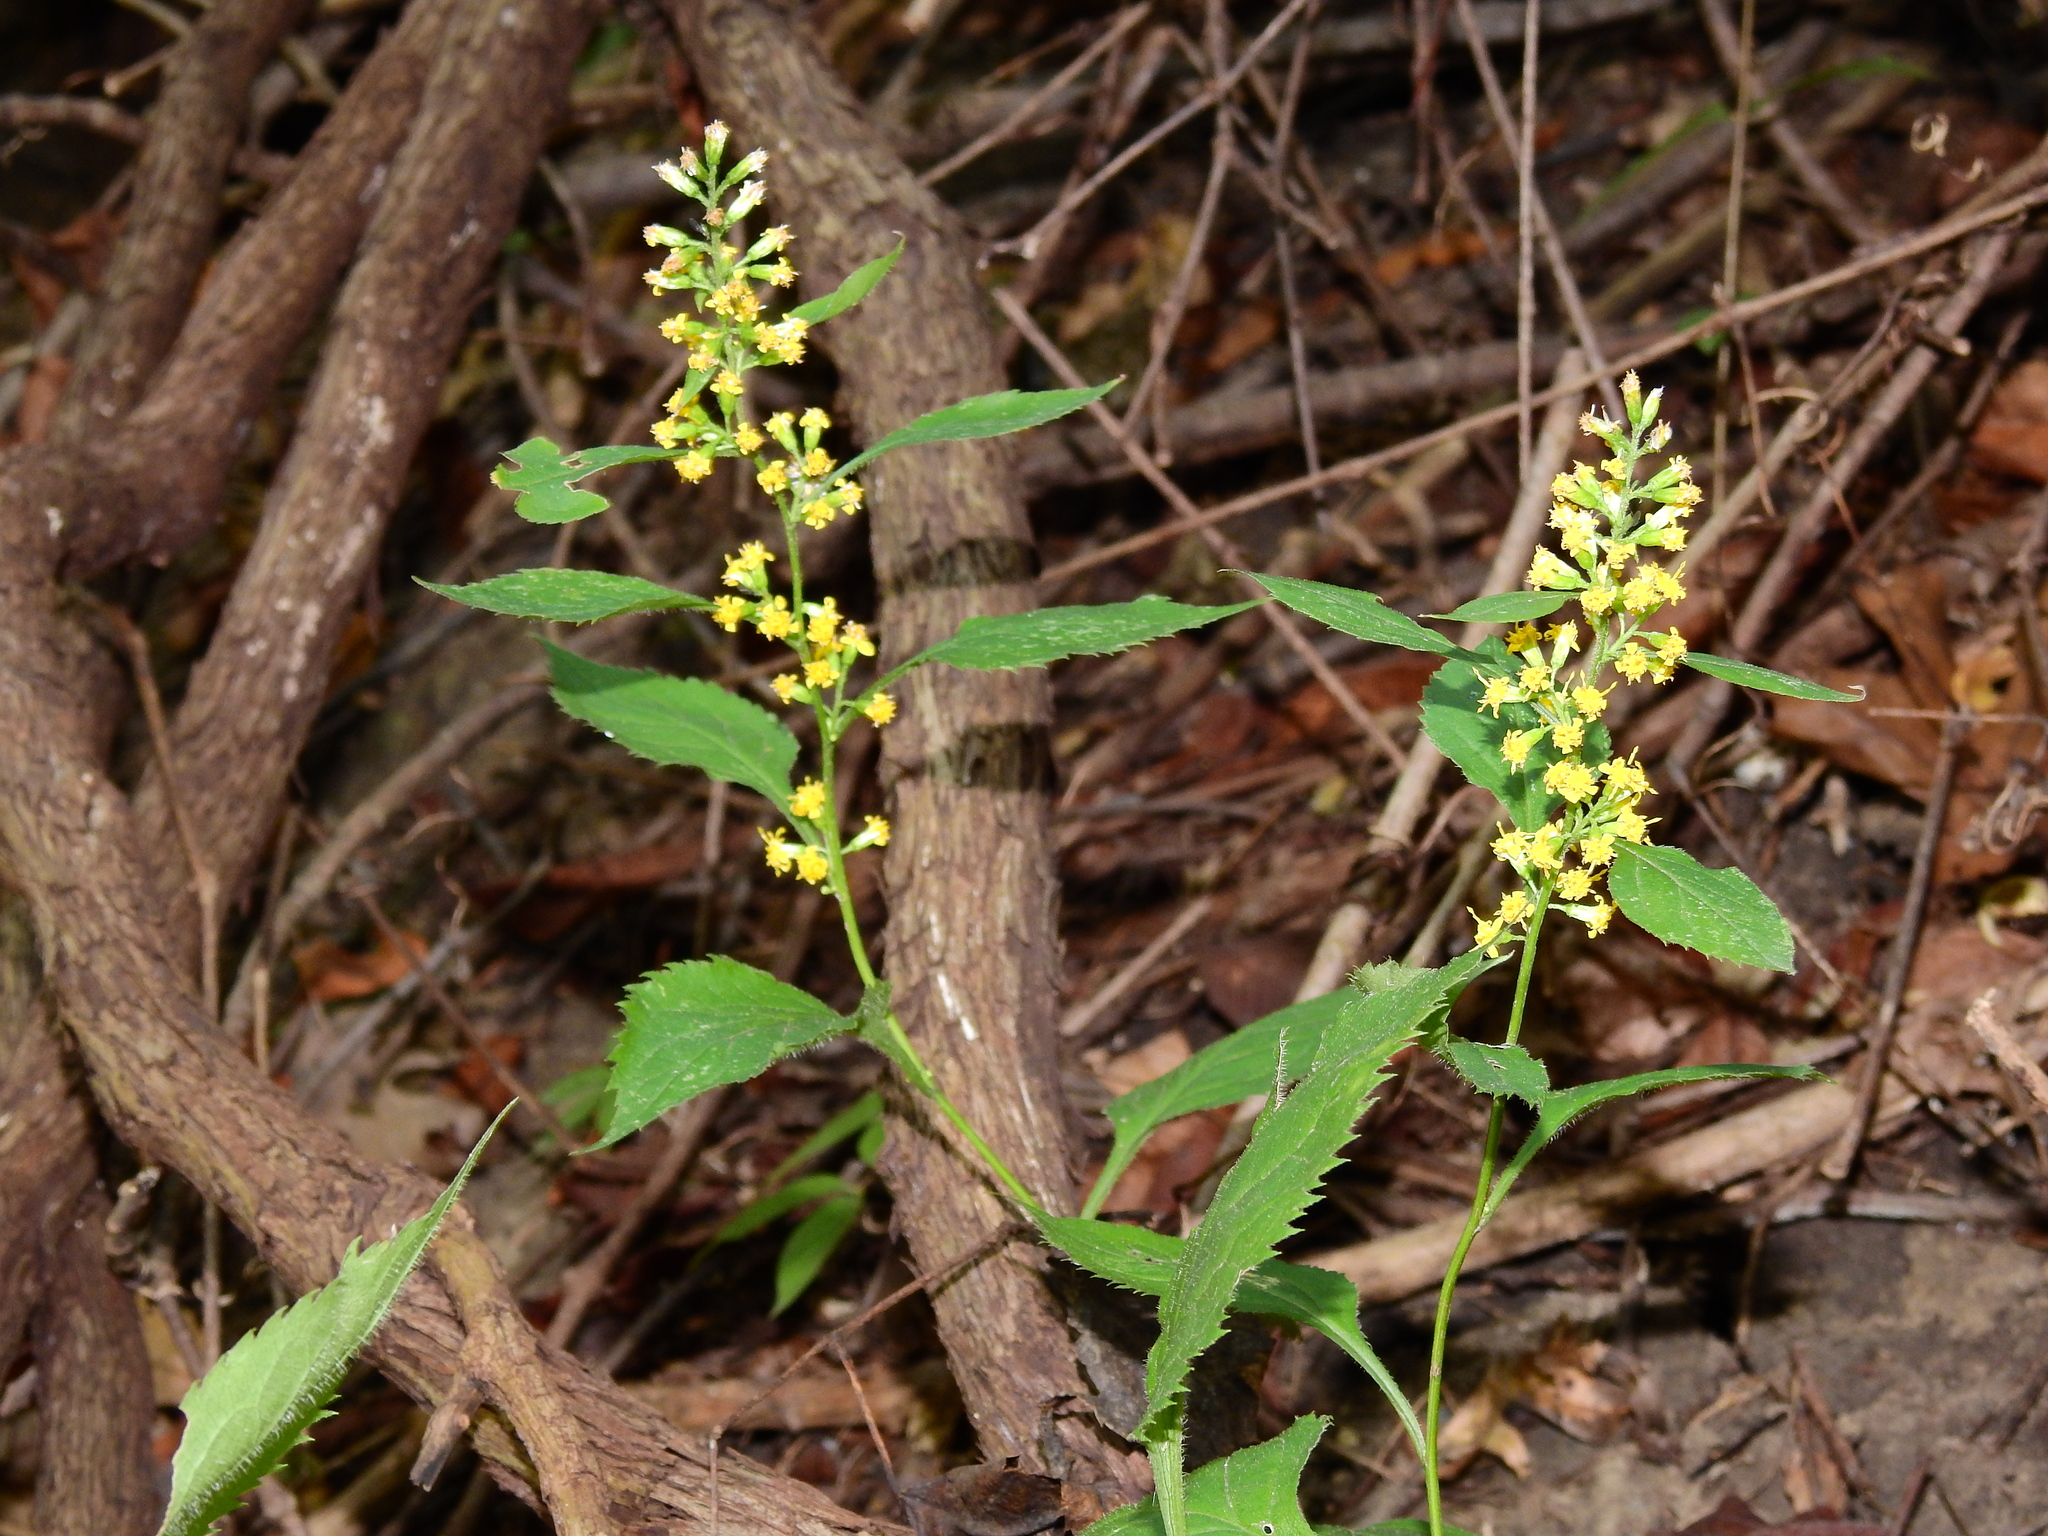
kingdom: Plantae
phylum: Tracheophyta
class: Magnoliopsida
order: Asterales
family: Asteraceae
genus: Solidago
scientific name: Solidago flexicaulis
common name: Zig-zag goldenrod
